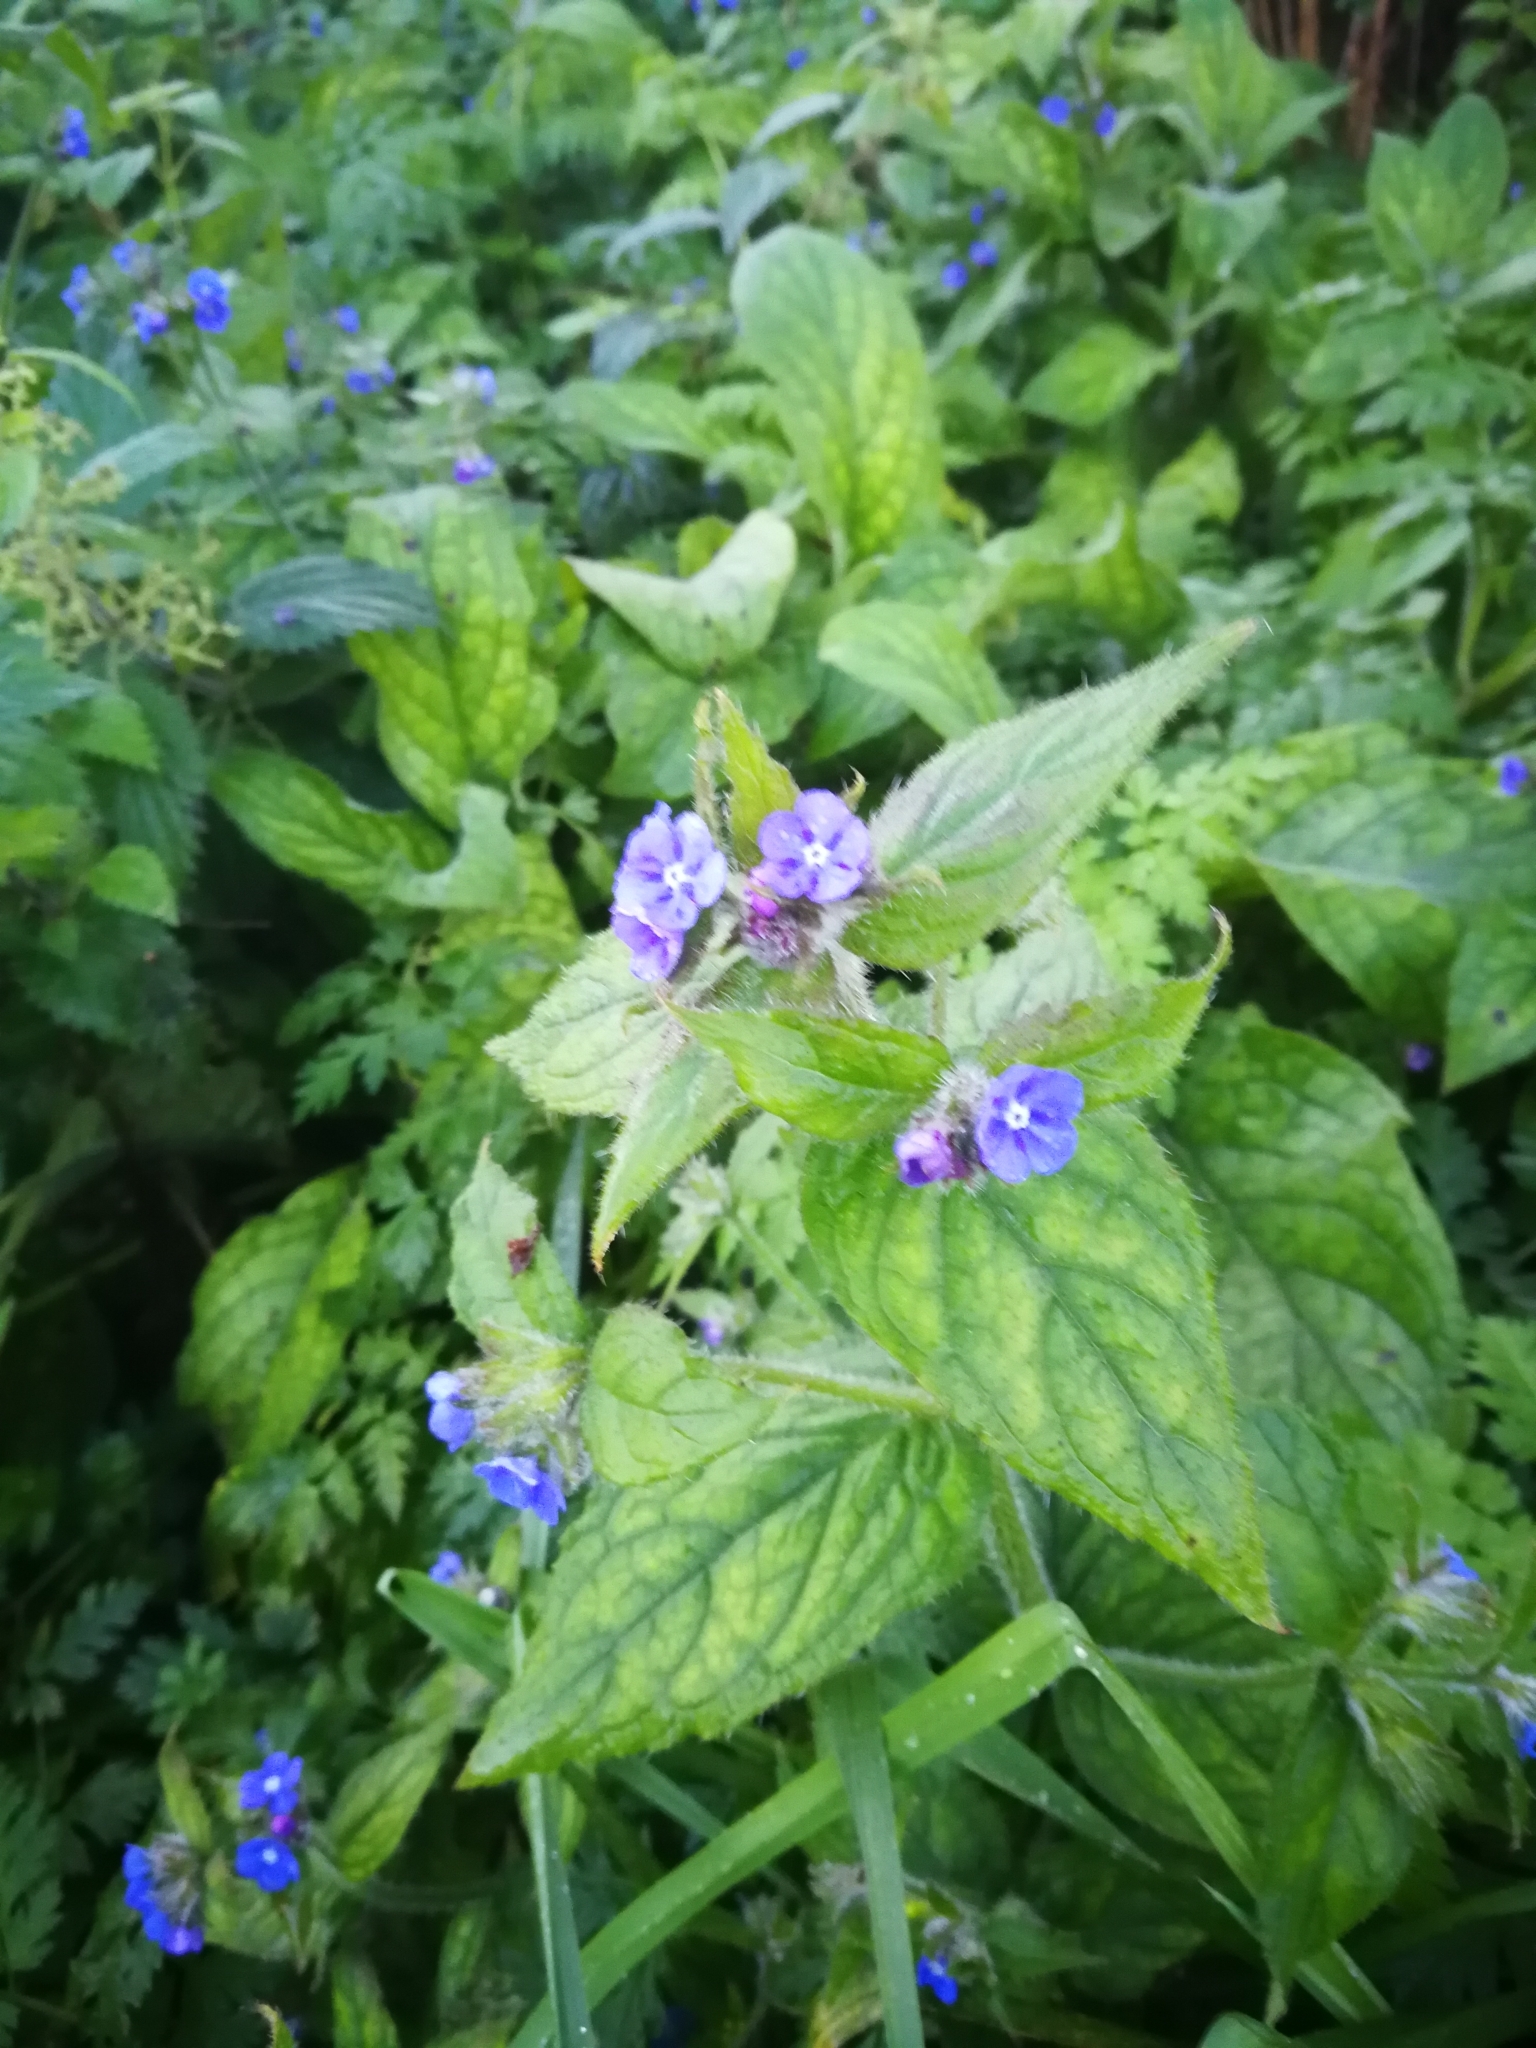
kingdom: Plantae
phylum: Tracheophyta
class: Magnoliopsida
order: Boraginales
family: Boraginaceae
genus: Pentaglottis
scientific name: Pentaglottis sempervirens
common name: Green alkanet
